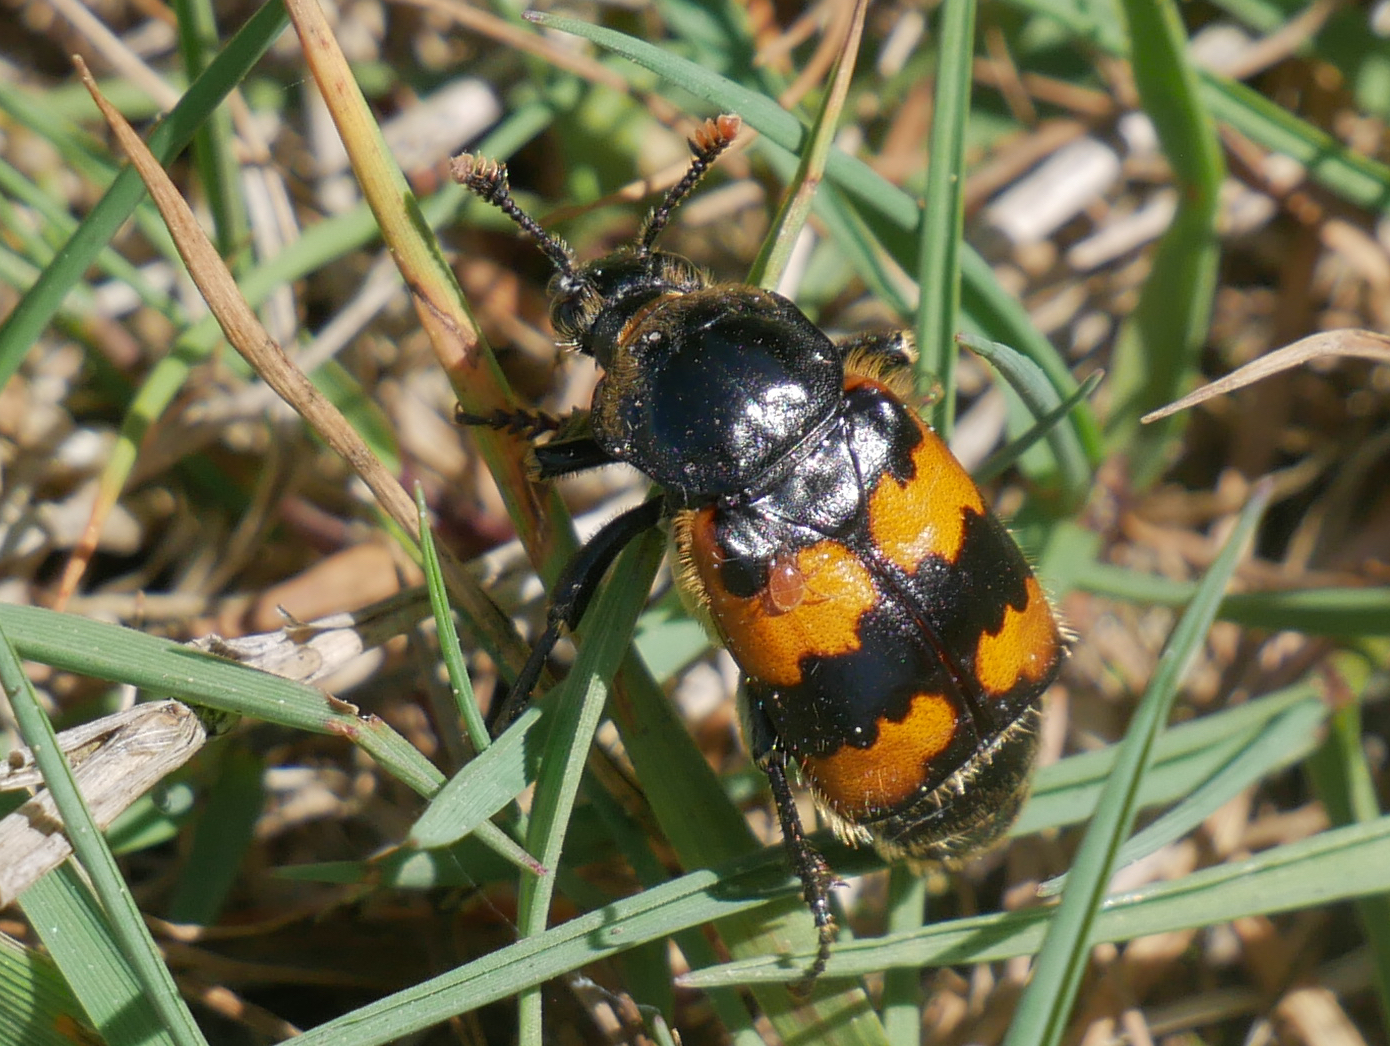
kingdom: Animalia
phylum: Arthropoda
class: Insecta
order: Coleoptera
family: Staphylinidae
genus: Nicrophorus
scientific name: Nicrophorus vespillo
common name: Common burying beetle
